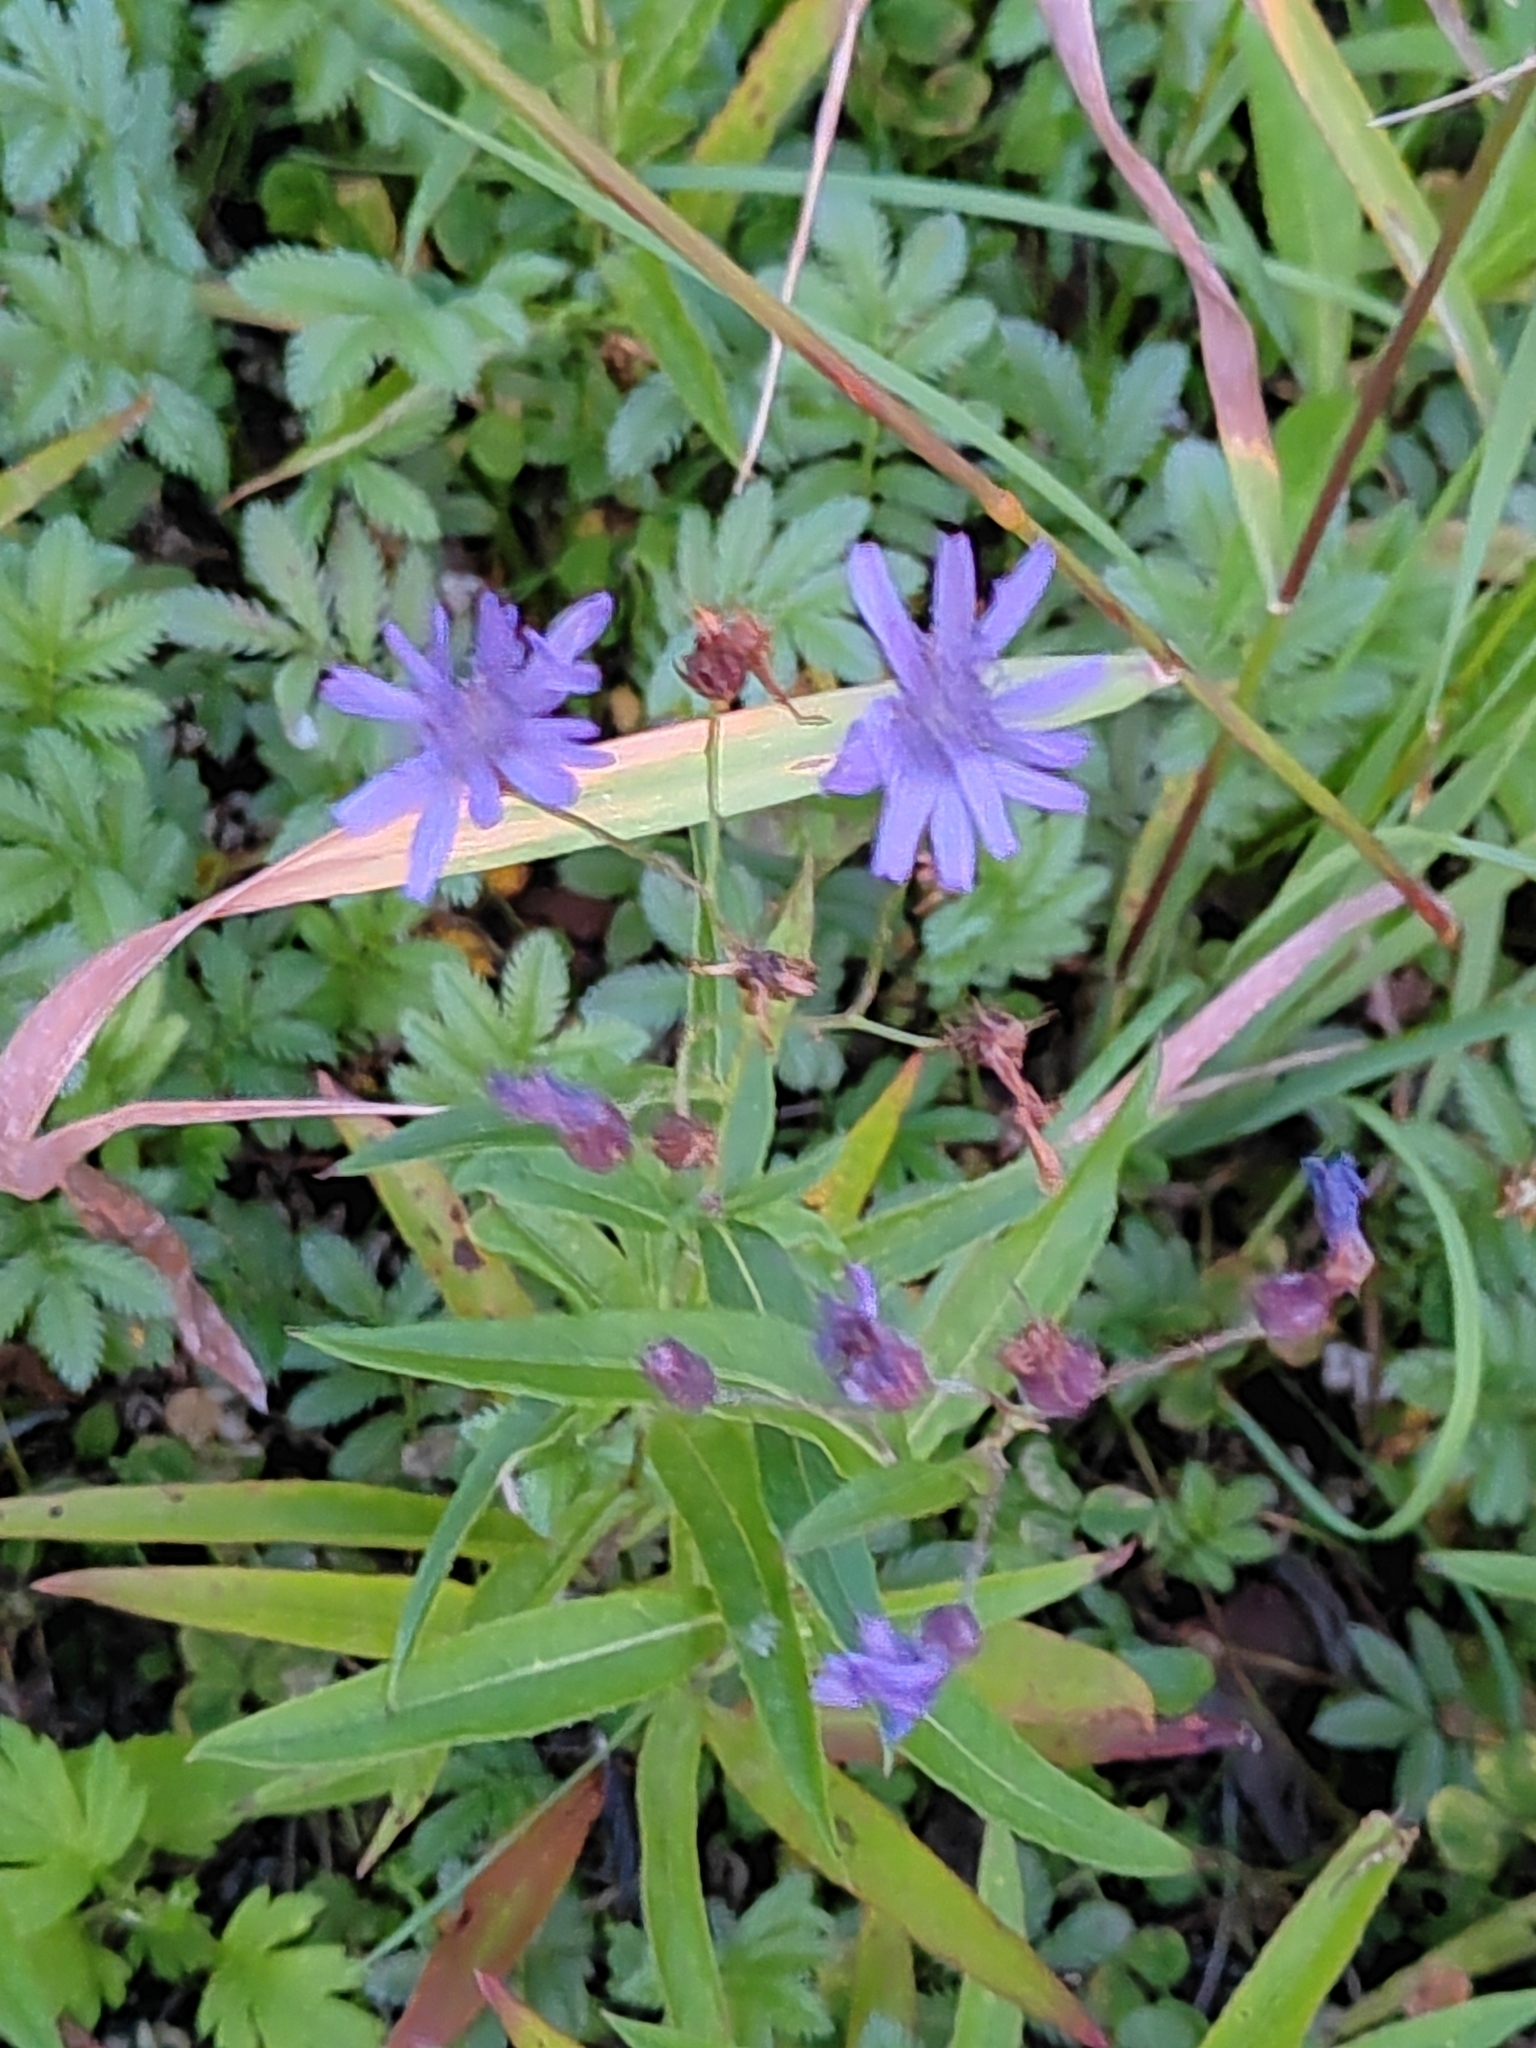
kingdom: Plantae
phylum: Tracheophyta
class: Magnoliopsida
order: Asterales
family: Asteraceae
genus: Lactuca
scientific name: Lactuca sibirica
